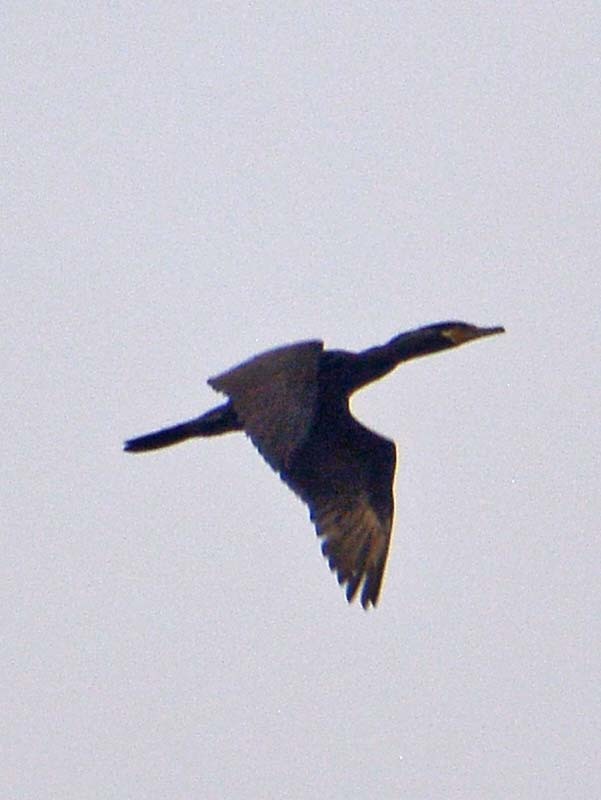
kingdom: Animalia
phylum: Chordata
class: Aves
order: Suliformes
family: Phalacrocoracidae
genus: Phalacrocorax
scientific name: Phalacrocorax brasilianus
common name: Neotropic cormorant
